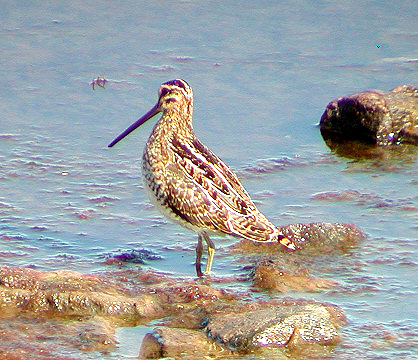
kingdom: Animalia
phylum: Chordata
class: Aves
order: Charadriiformes
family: Scolopacidae
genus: Gallinago
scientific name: Gallinago gallinago
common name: Common snipe
